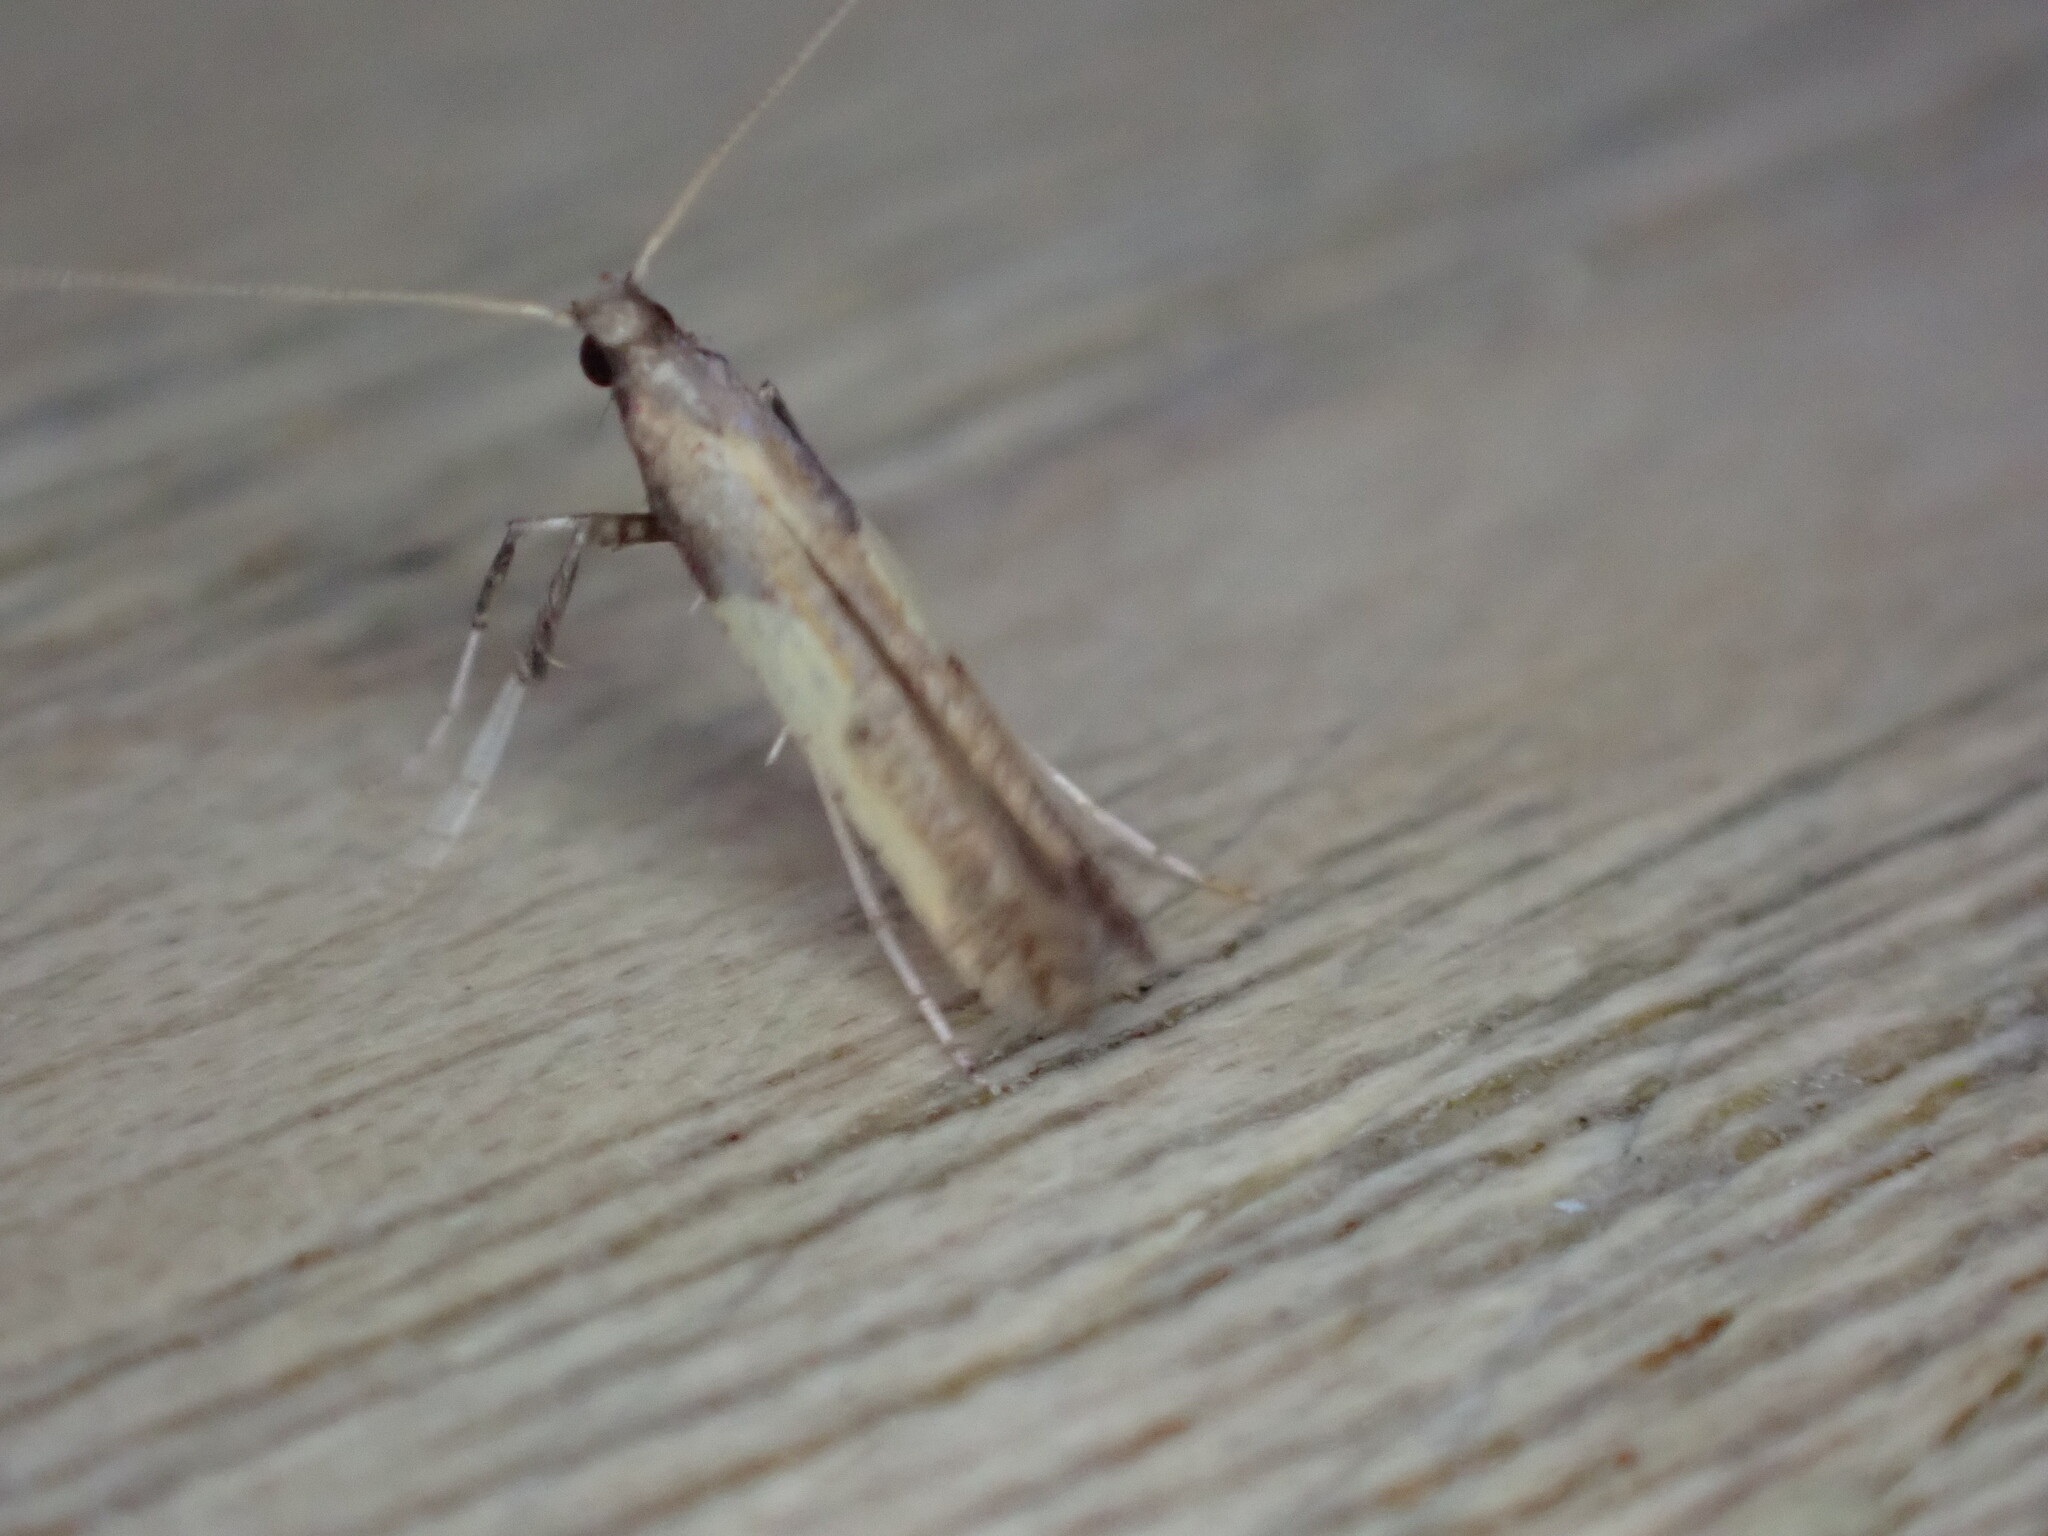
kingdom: Animalia
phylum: Arthropoda
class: Insecta
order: Lepidoptera
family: Gracillariidae
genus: Caloptilia
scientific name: Caloptilia azaleella
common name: Azalea leafminer
